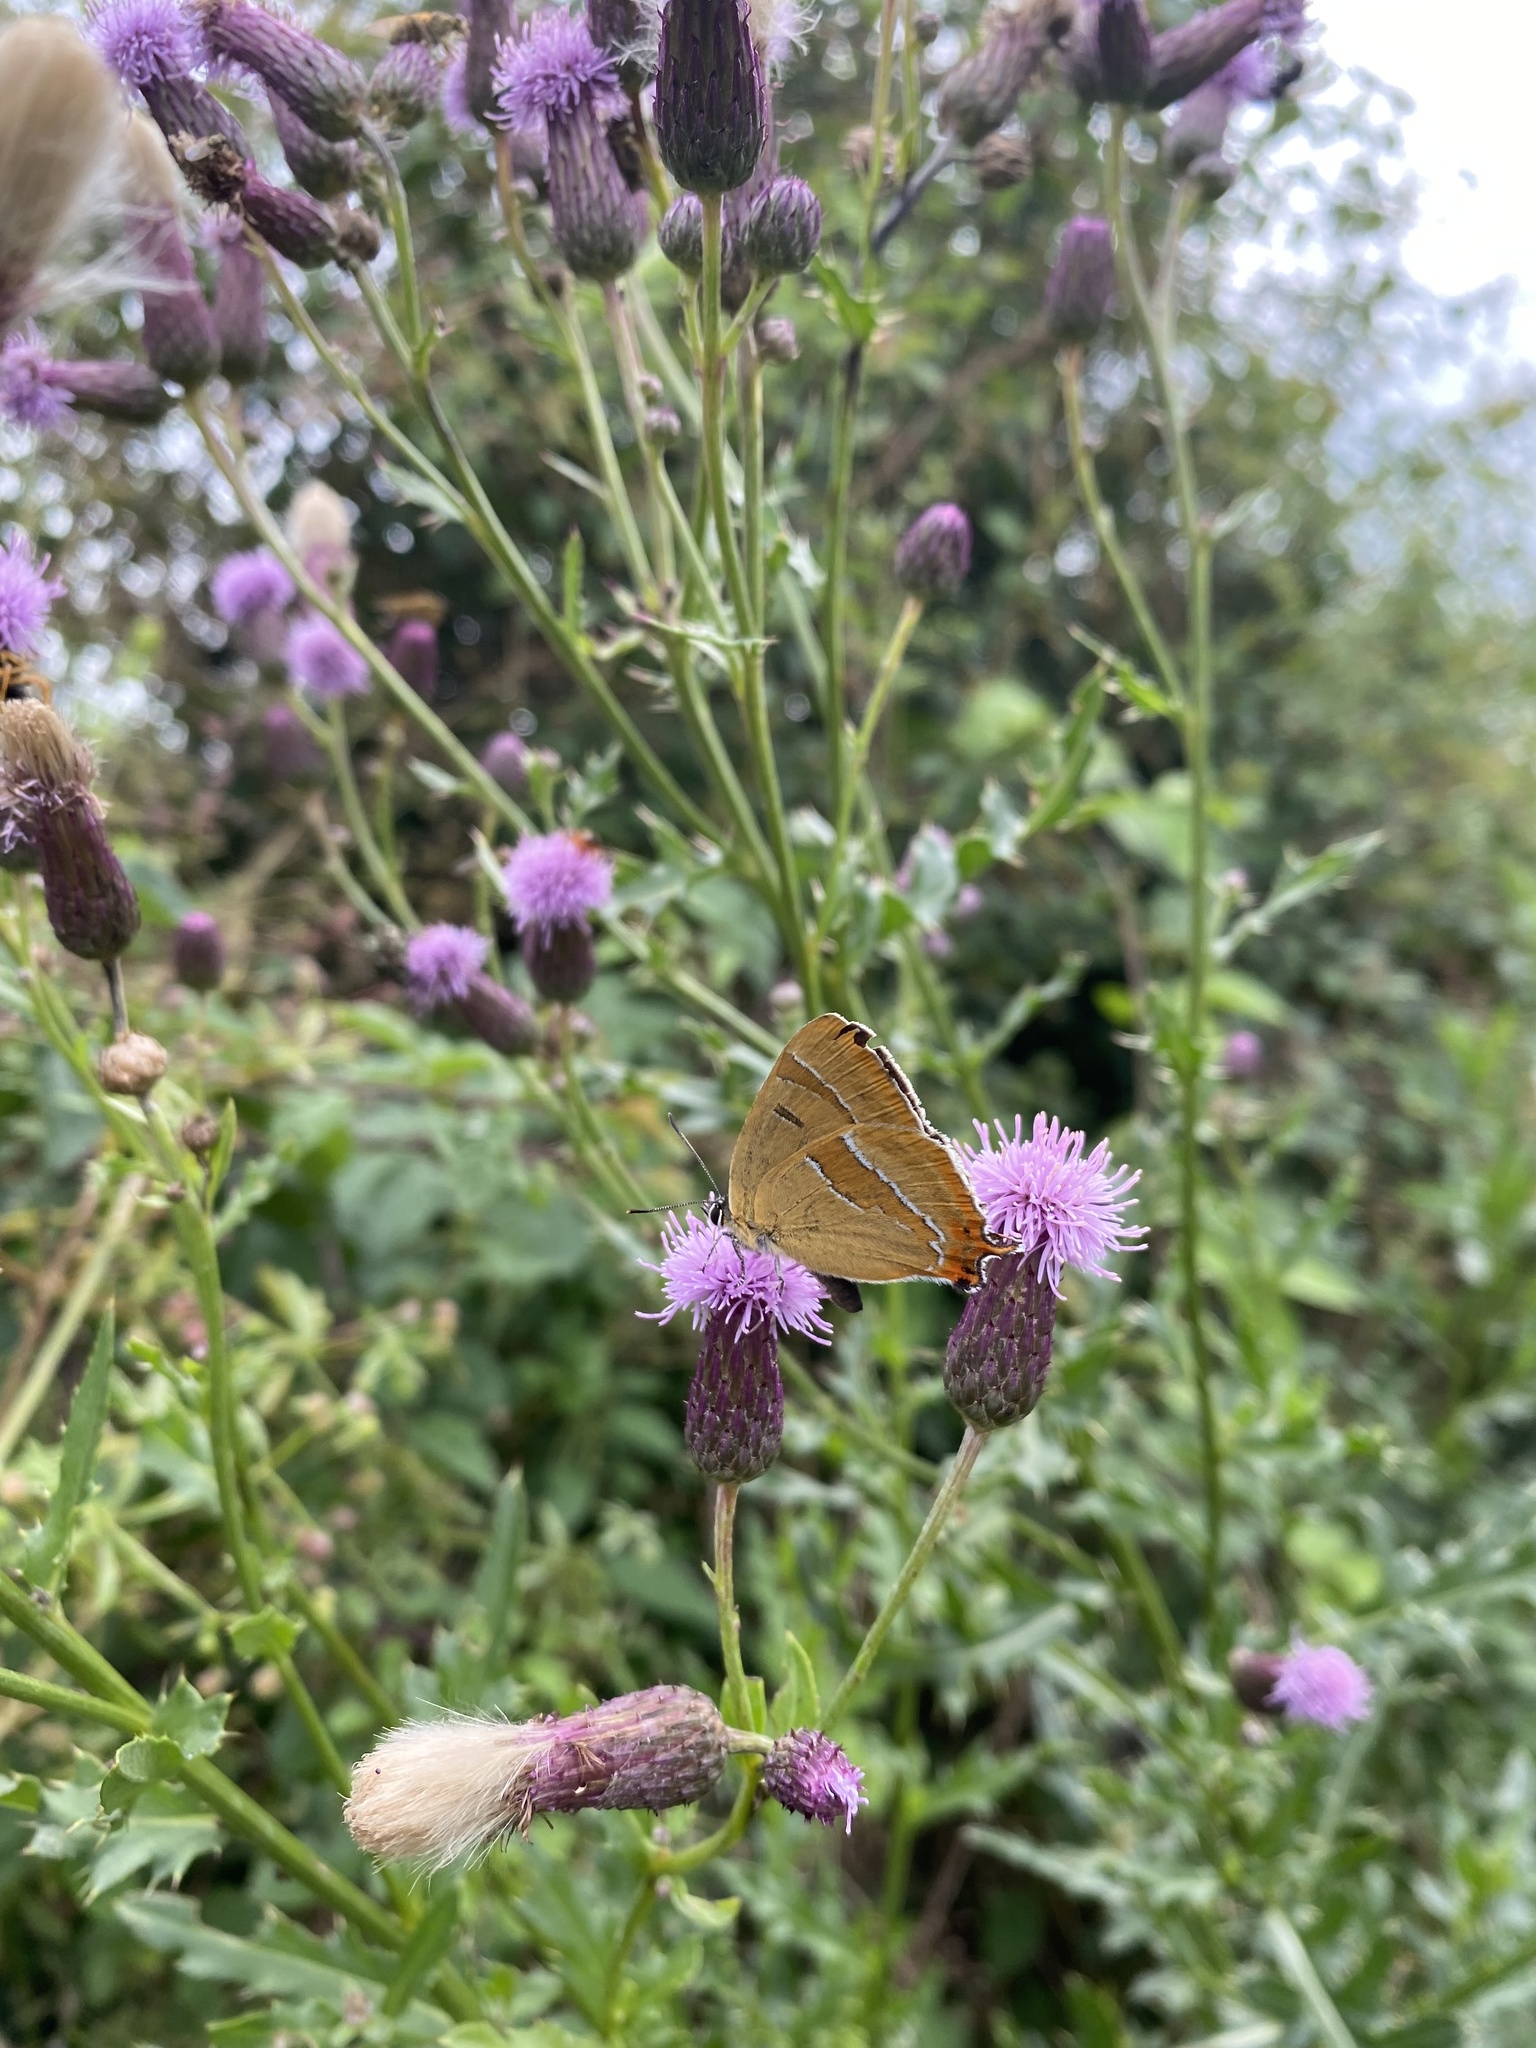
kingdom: Animalia
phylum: Arthropoda
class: Insecta
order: Lepidoptera
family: Lycaenidae
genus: Thecla
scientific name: Thecla betulae
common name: Brown hairstreak
